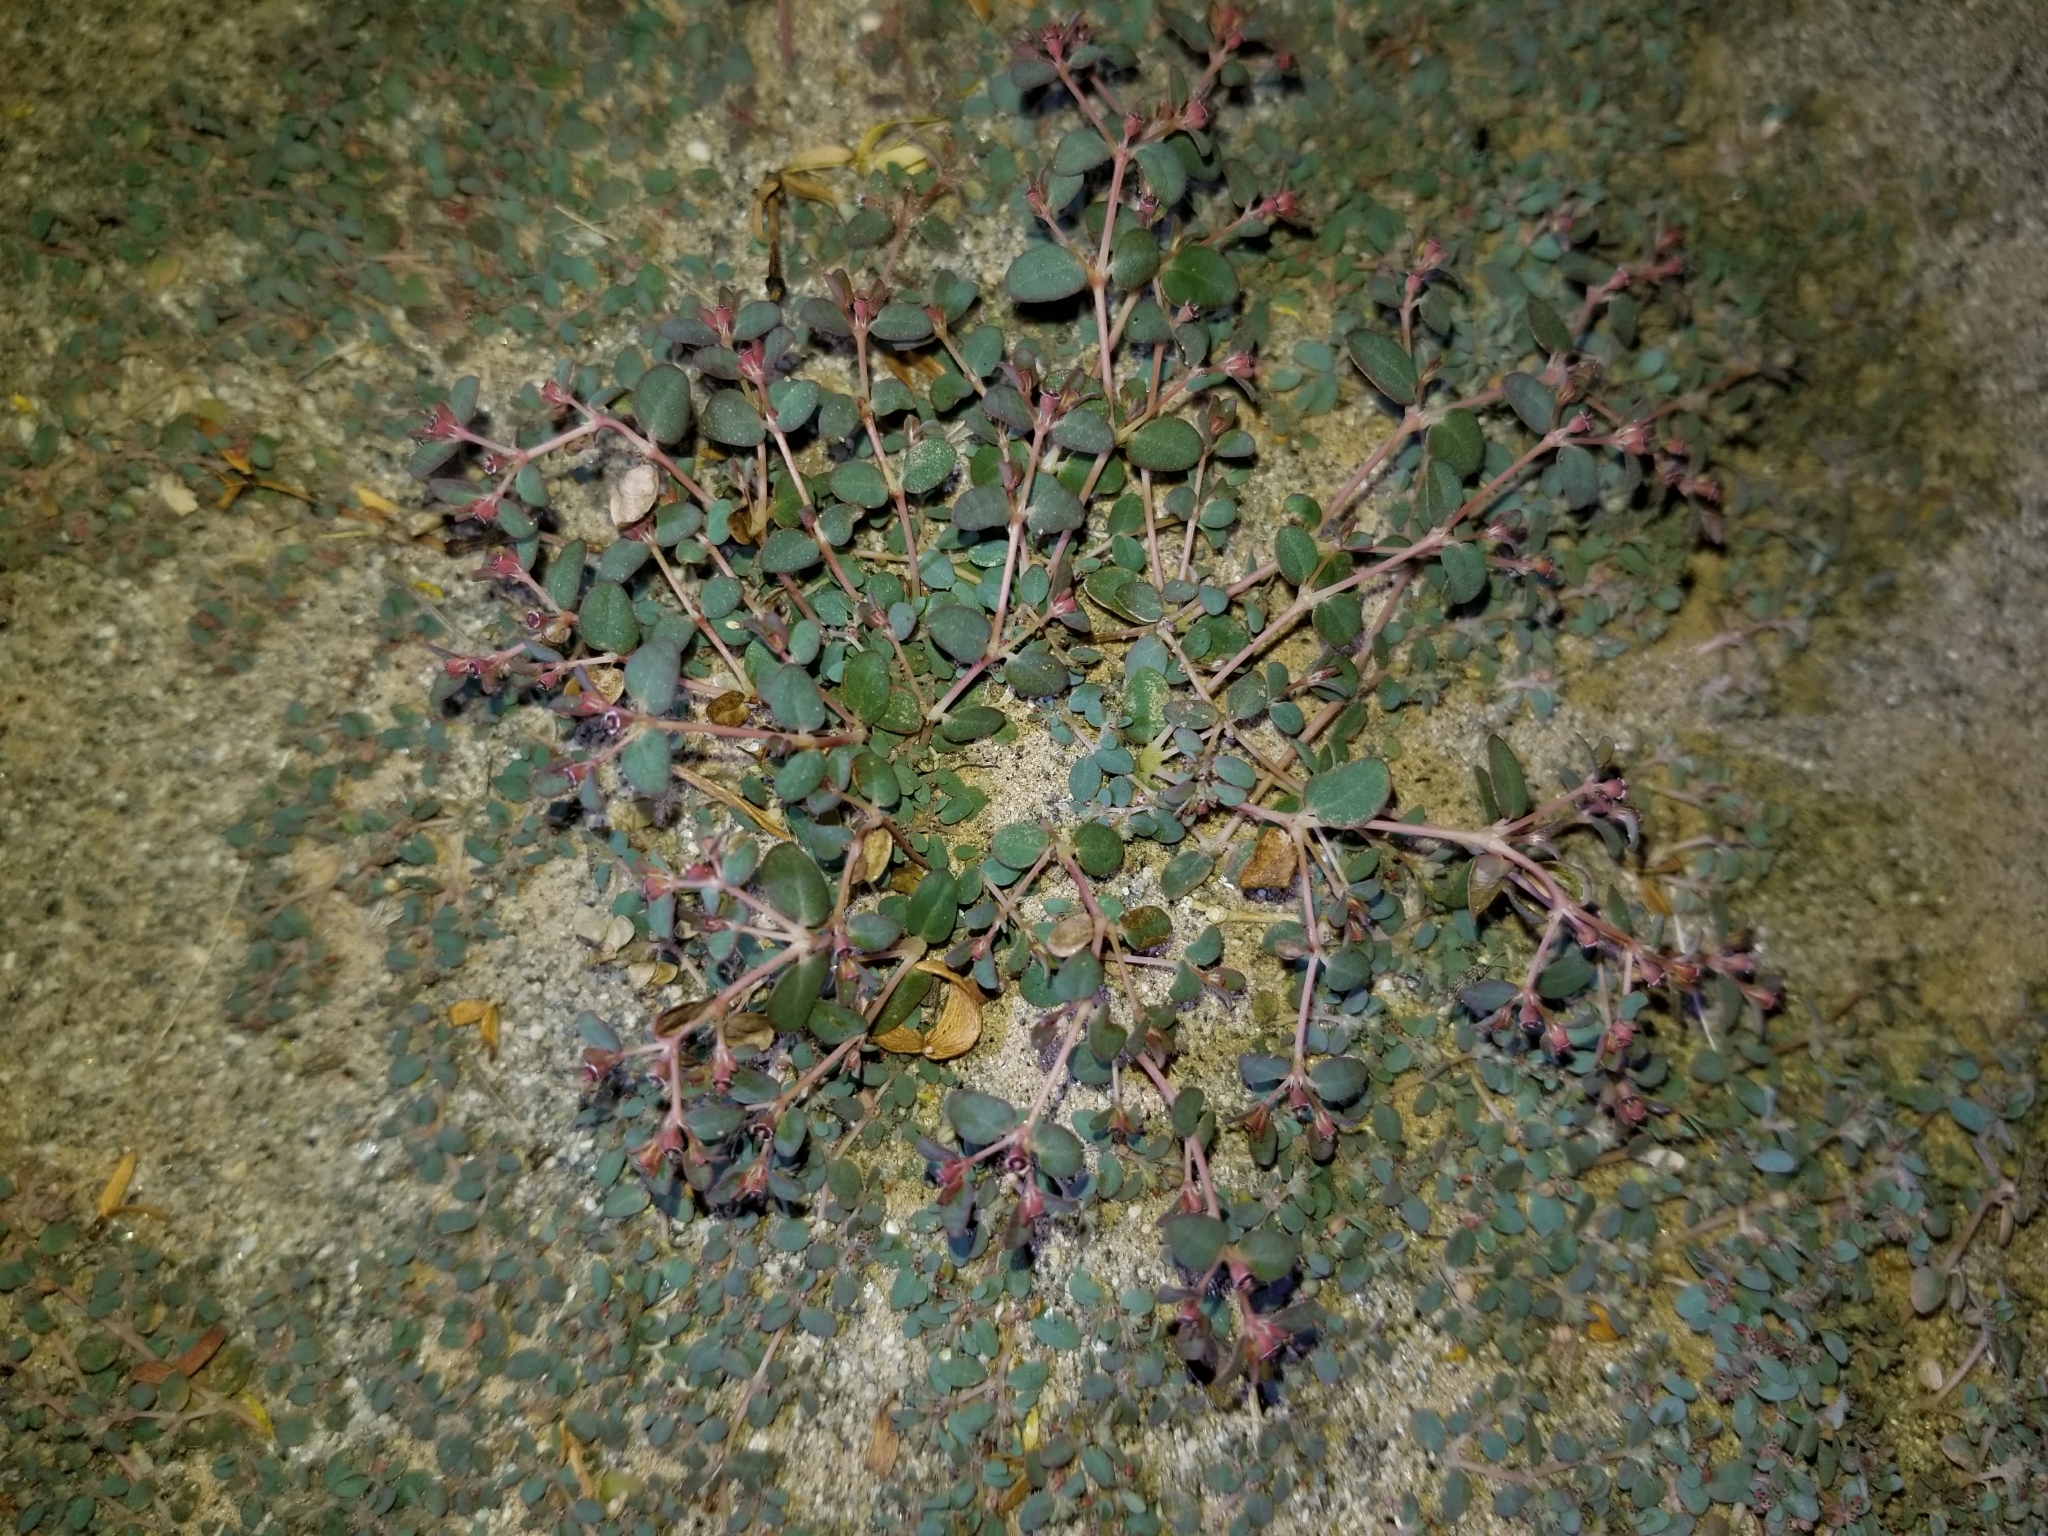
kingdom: Plantae
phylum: Tracheophyta
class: Magnoliopsida
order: Malpighiales
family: Euphorbiaceae
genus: Euphorbia
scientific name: Euphorbia polycarpa
